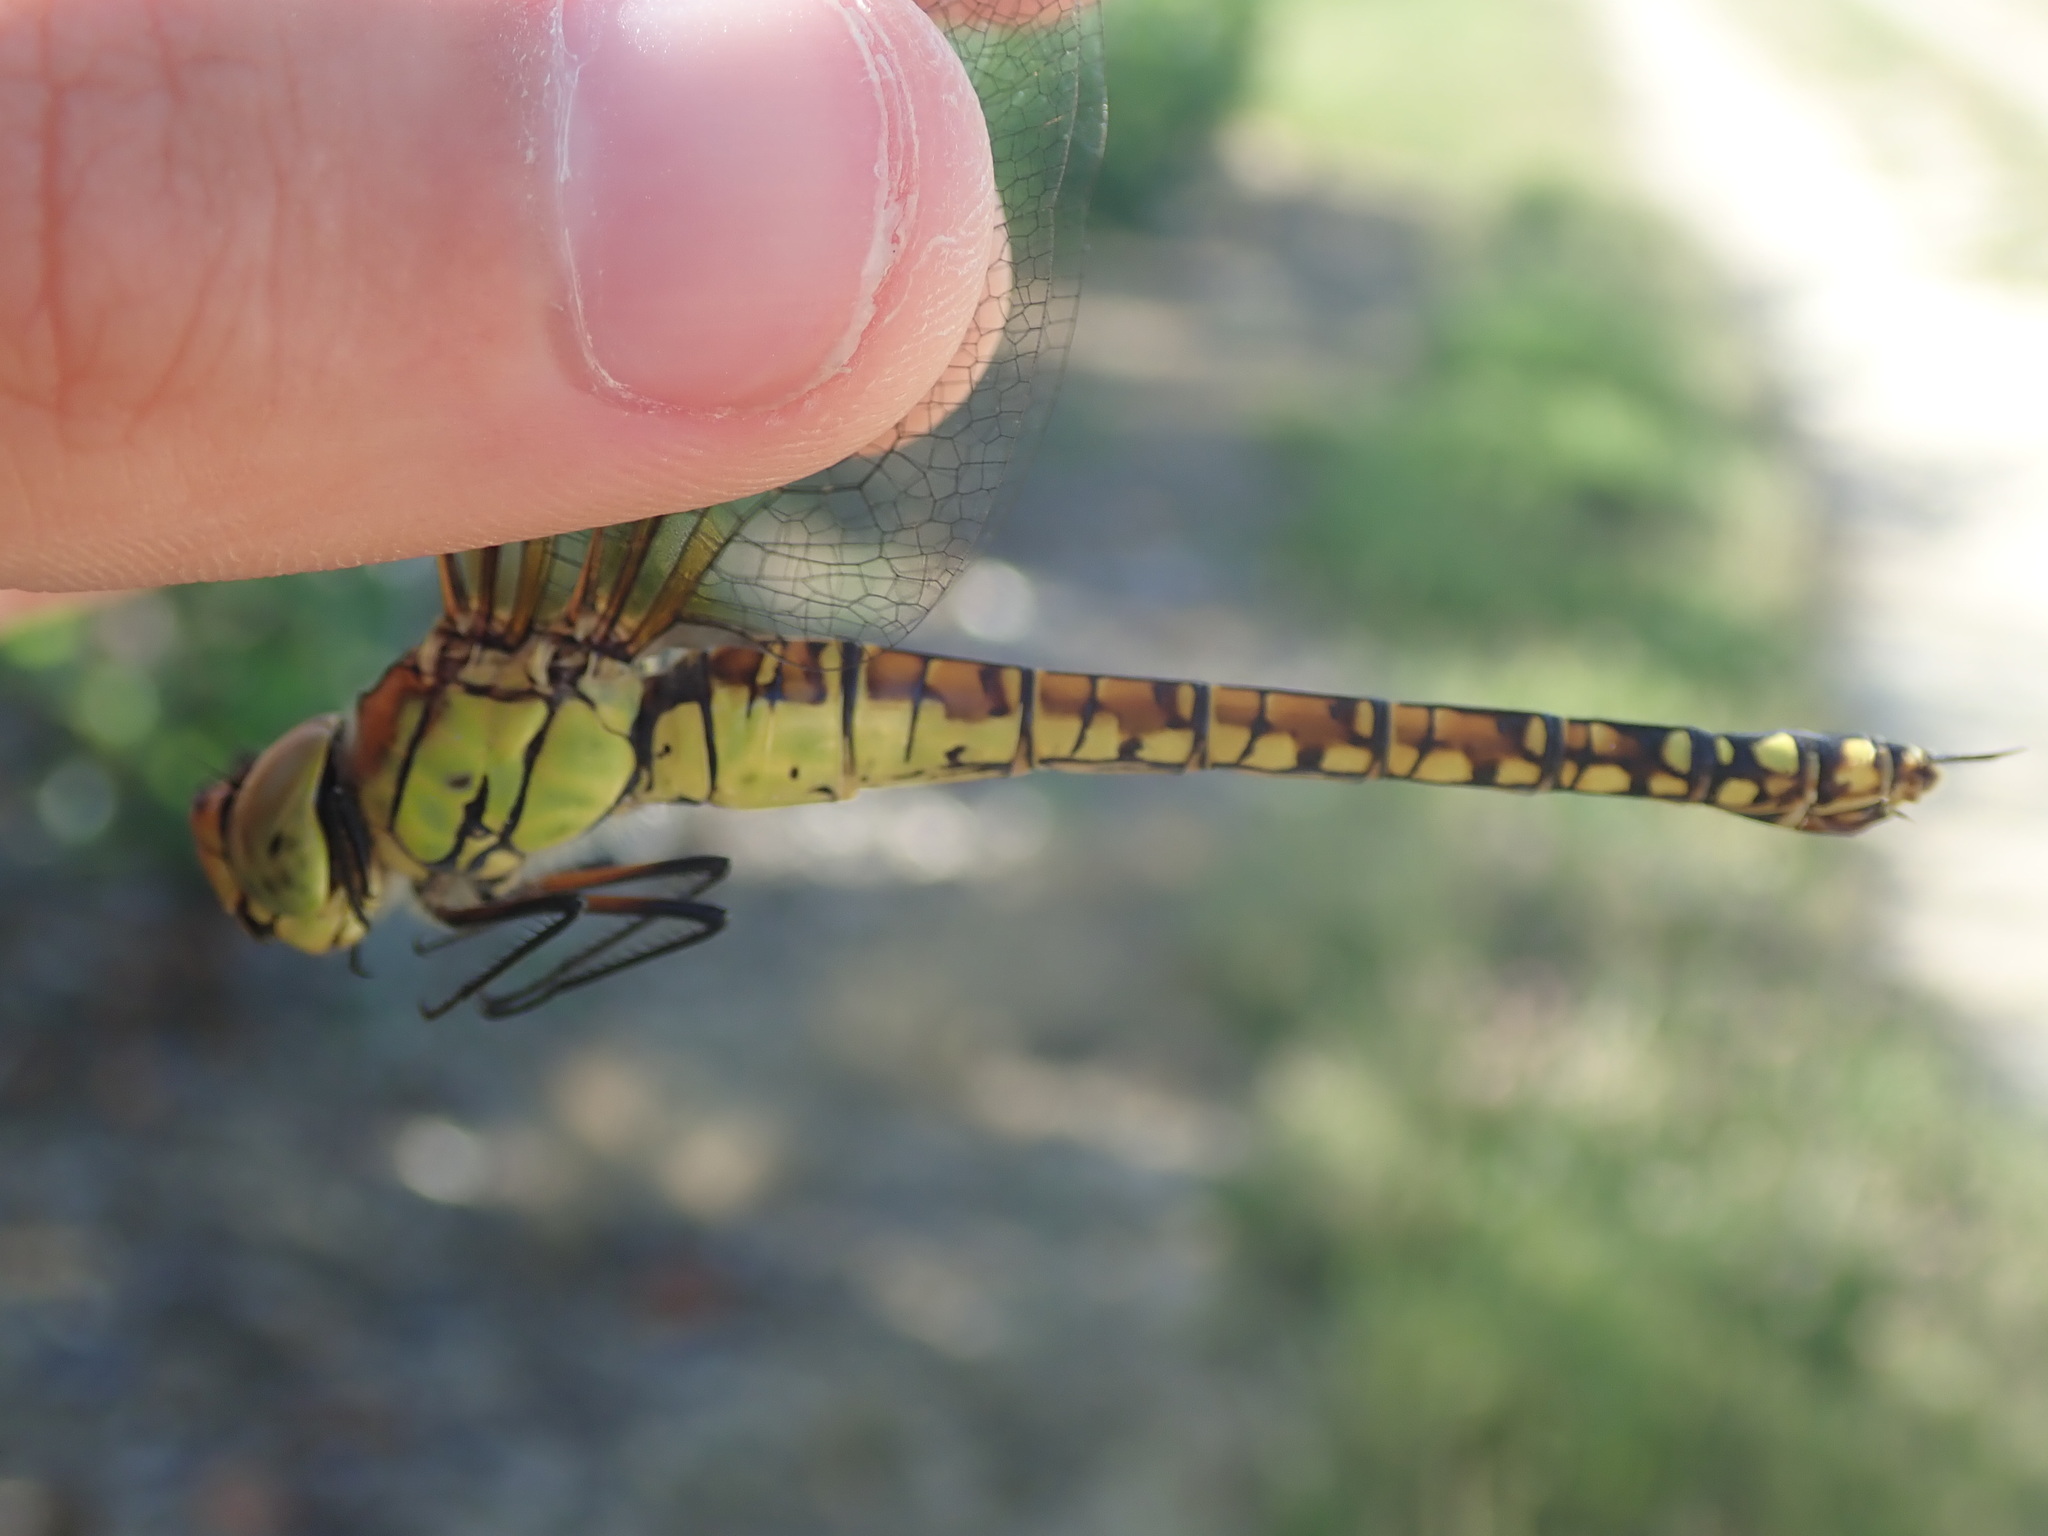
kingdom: Animalia
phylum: Arthropoda
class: Insecta
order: Odonata
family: Aeshnidae
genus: Aeshna
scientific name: Aeshna affinis
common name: Southern migrant hawker
